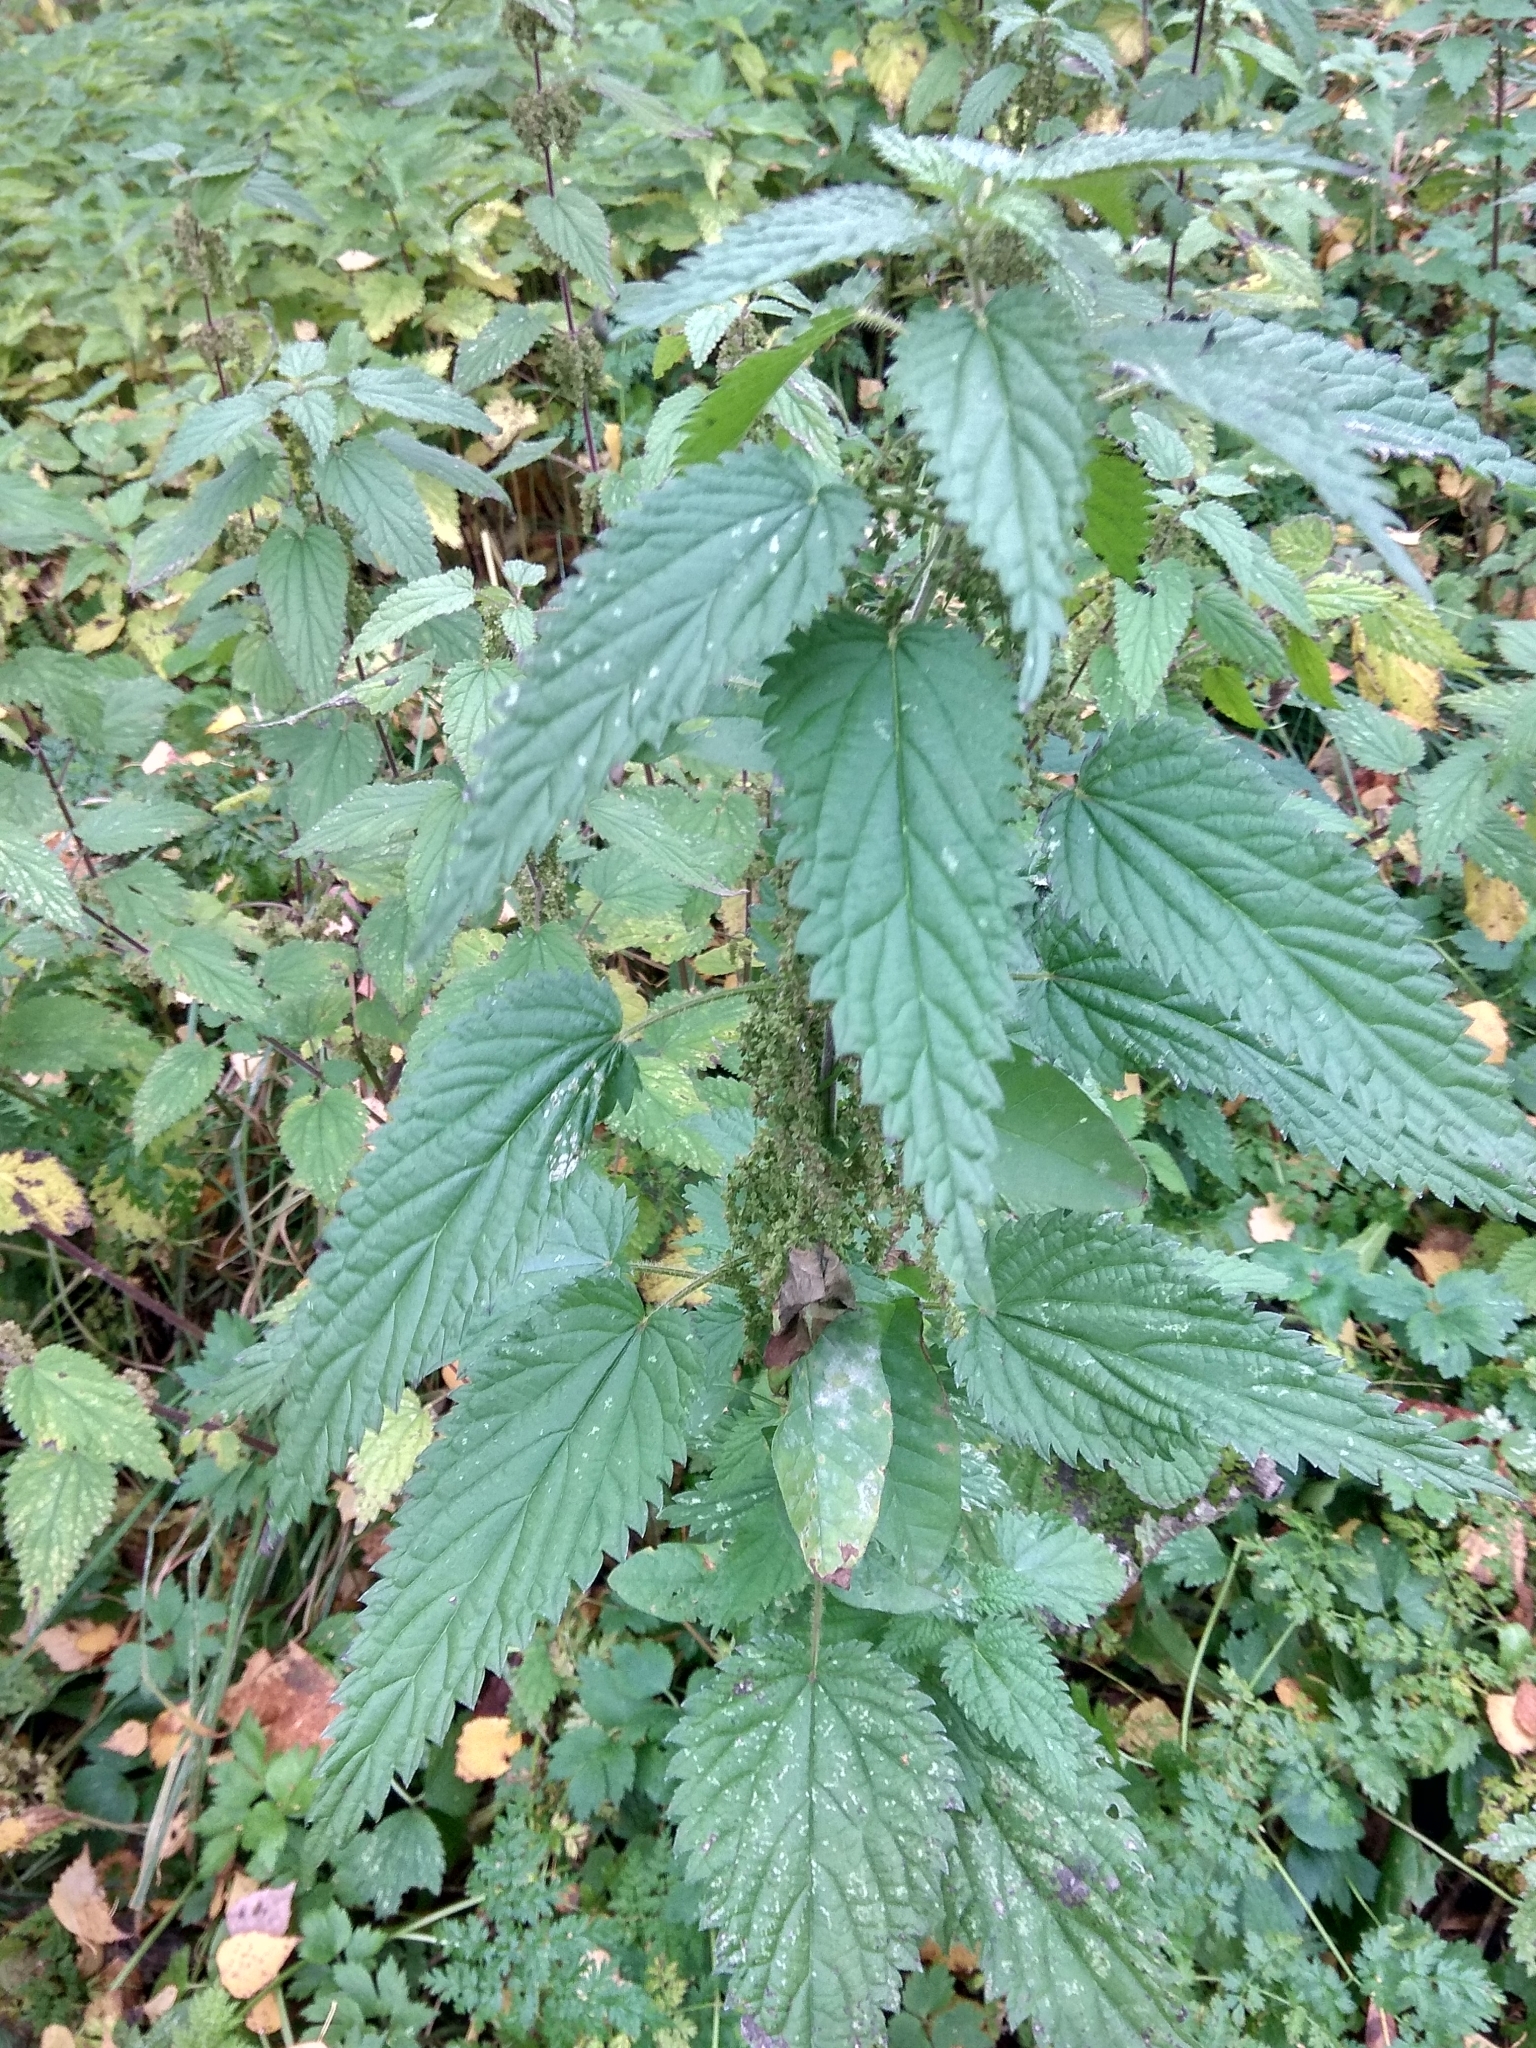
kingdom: Plantae
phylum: Tracheophyta
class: Magnoliopsida
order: Rosales
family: Urticaceae
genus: Urtica
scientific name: Urtica dioica
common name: Common nettle
